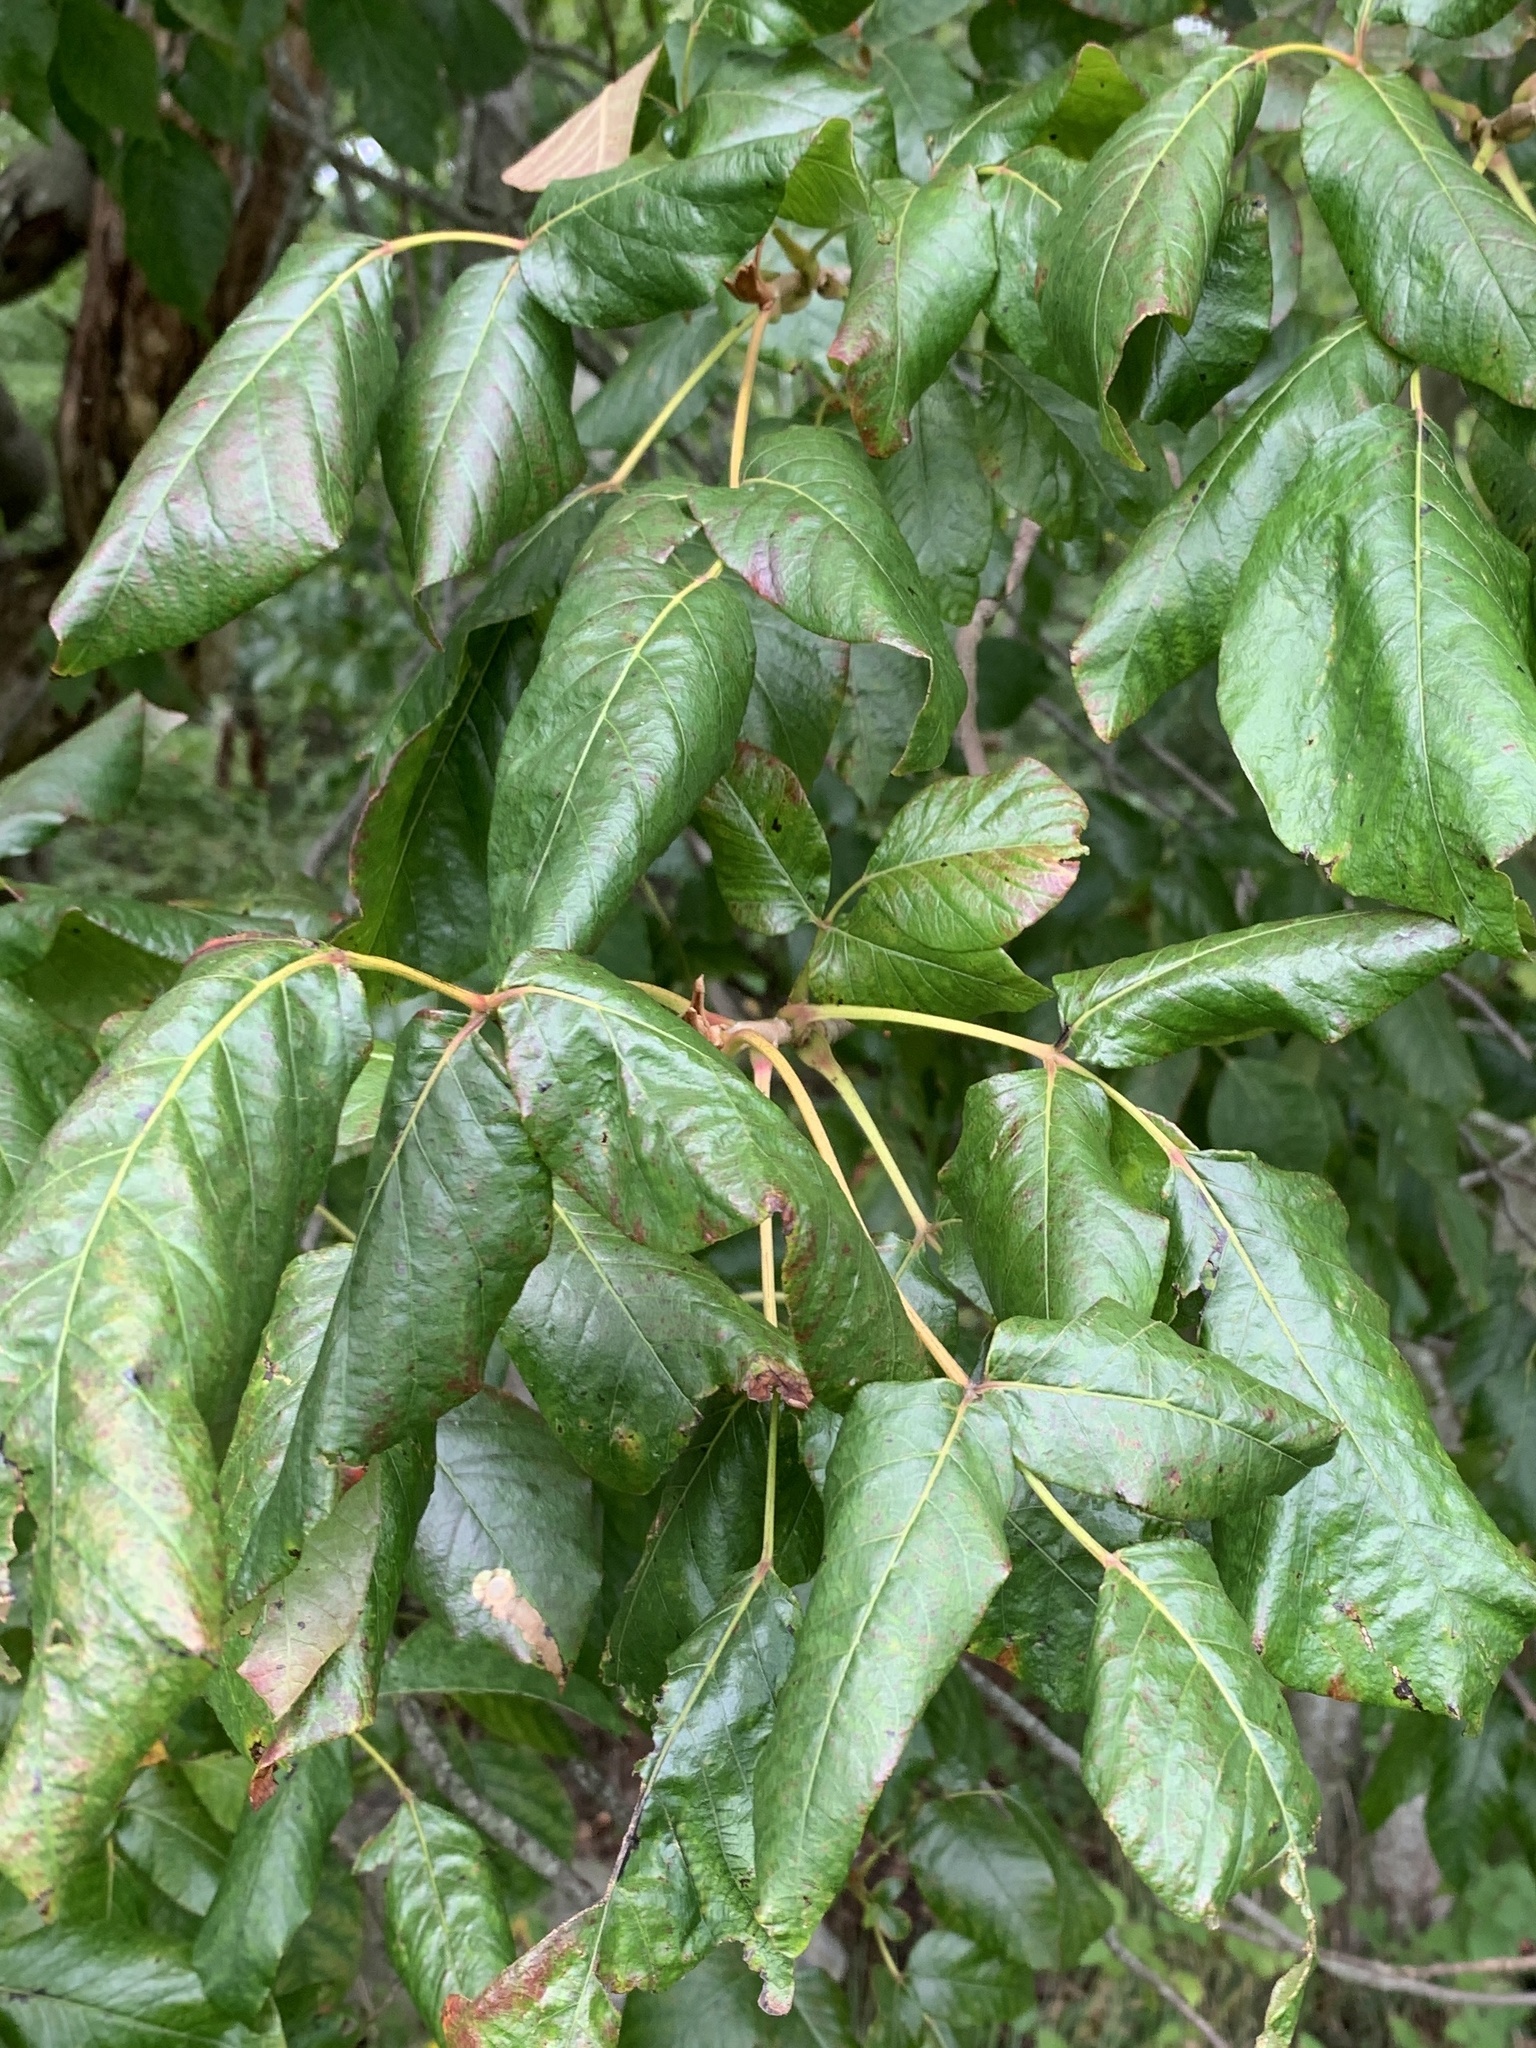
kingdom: Plantae
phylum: Tracheophyta
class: Magnoliopsida
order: Sapindales
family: Anacardiaceae
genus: Toxicodendron
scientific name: Toxicodendron radicans
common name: Poison ivy
